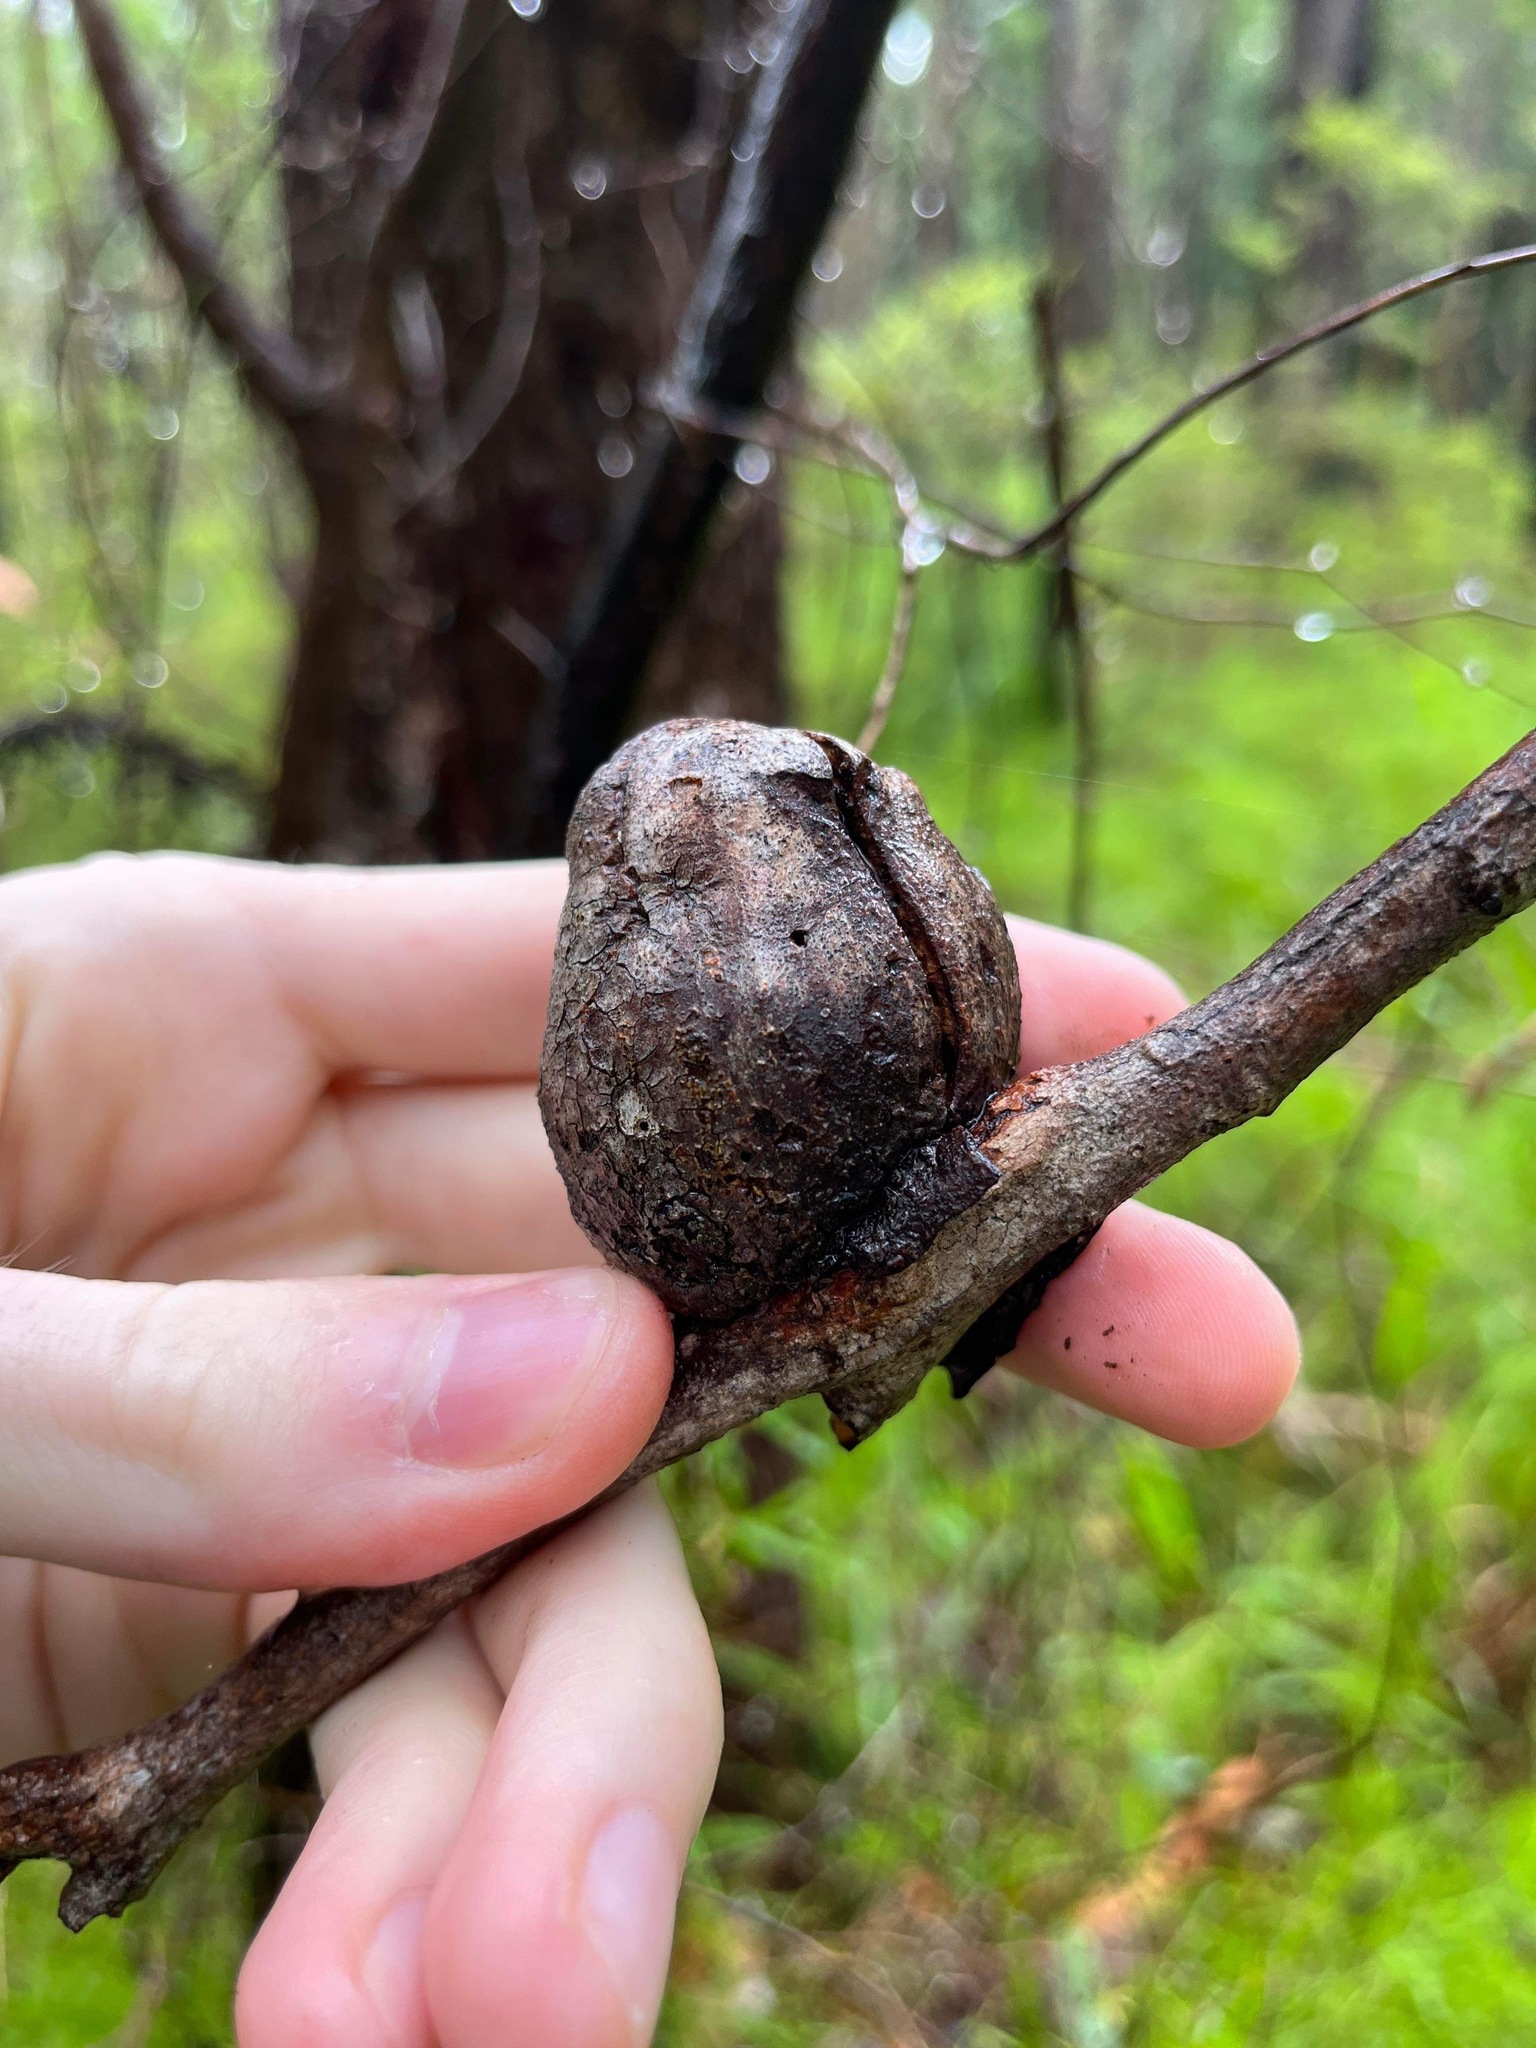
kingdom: Animalia
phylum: Arthropoda
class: Insecta
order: Hemiptera
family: Eriococcidae
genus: Apiomorpha
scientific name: Apiomorpha variabilis
